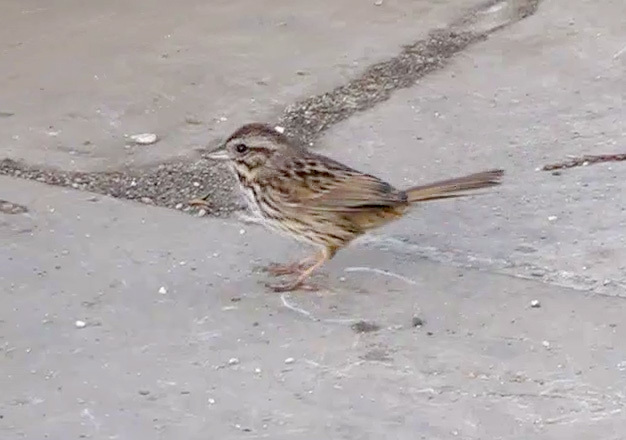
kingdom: Animalia
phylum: Chordata
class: Aves
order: Passeriformes
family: Passerellidae
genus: Melospiza
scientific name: Melospiza melodia
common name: Song sparrow
